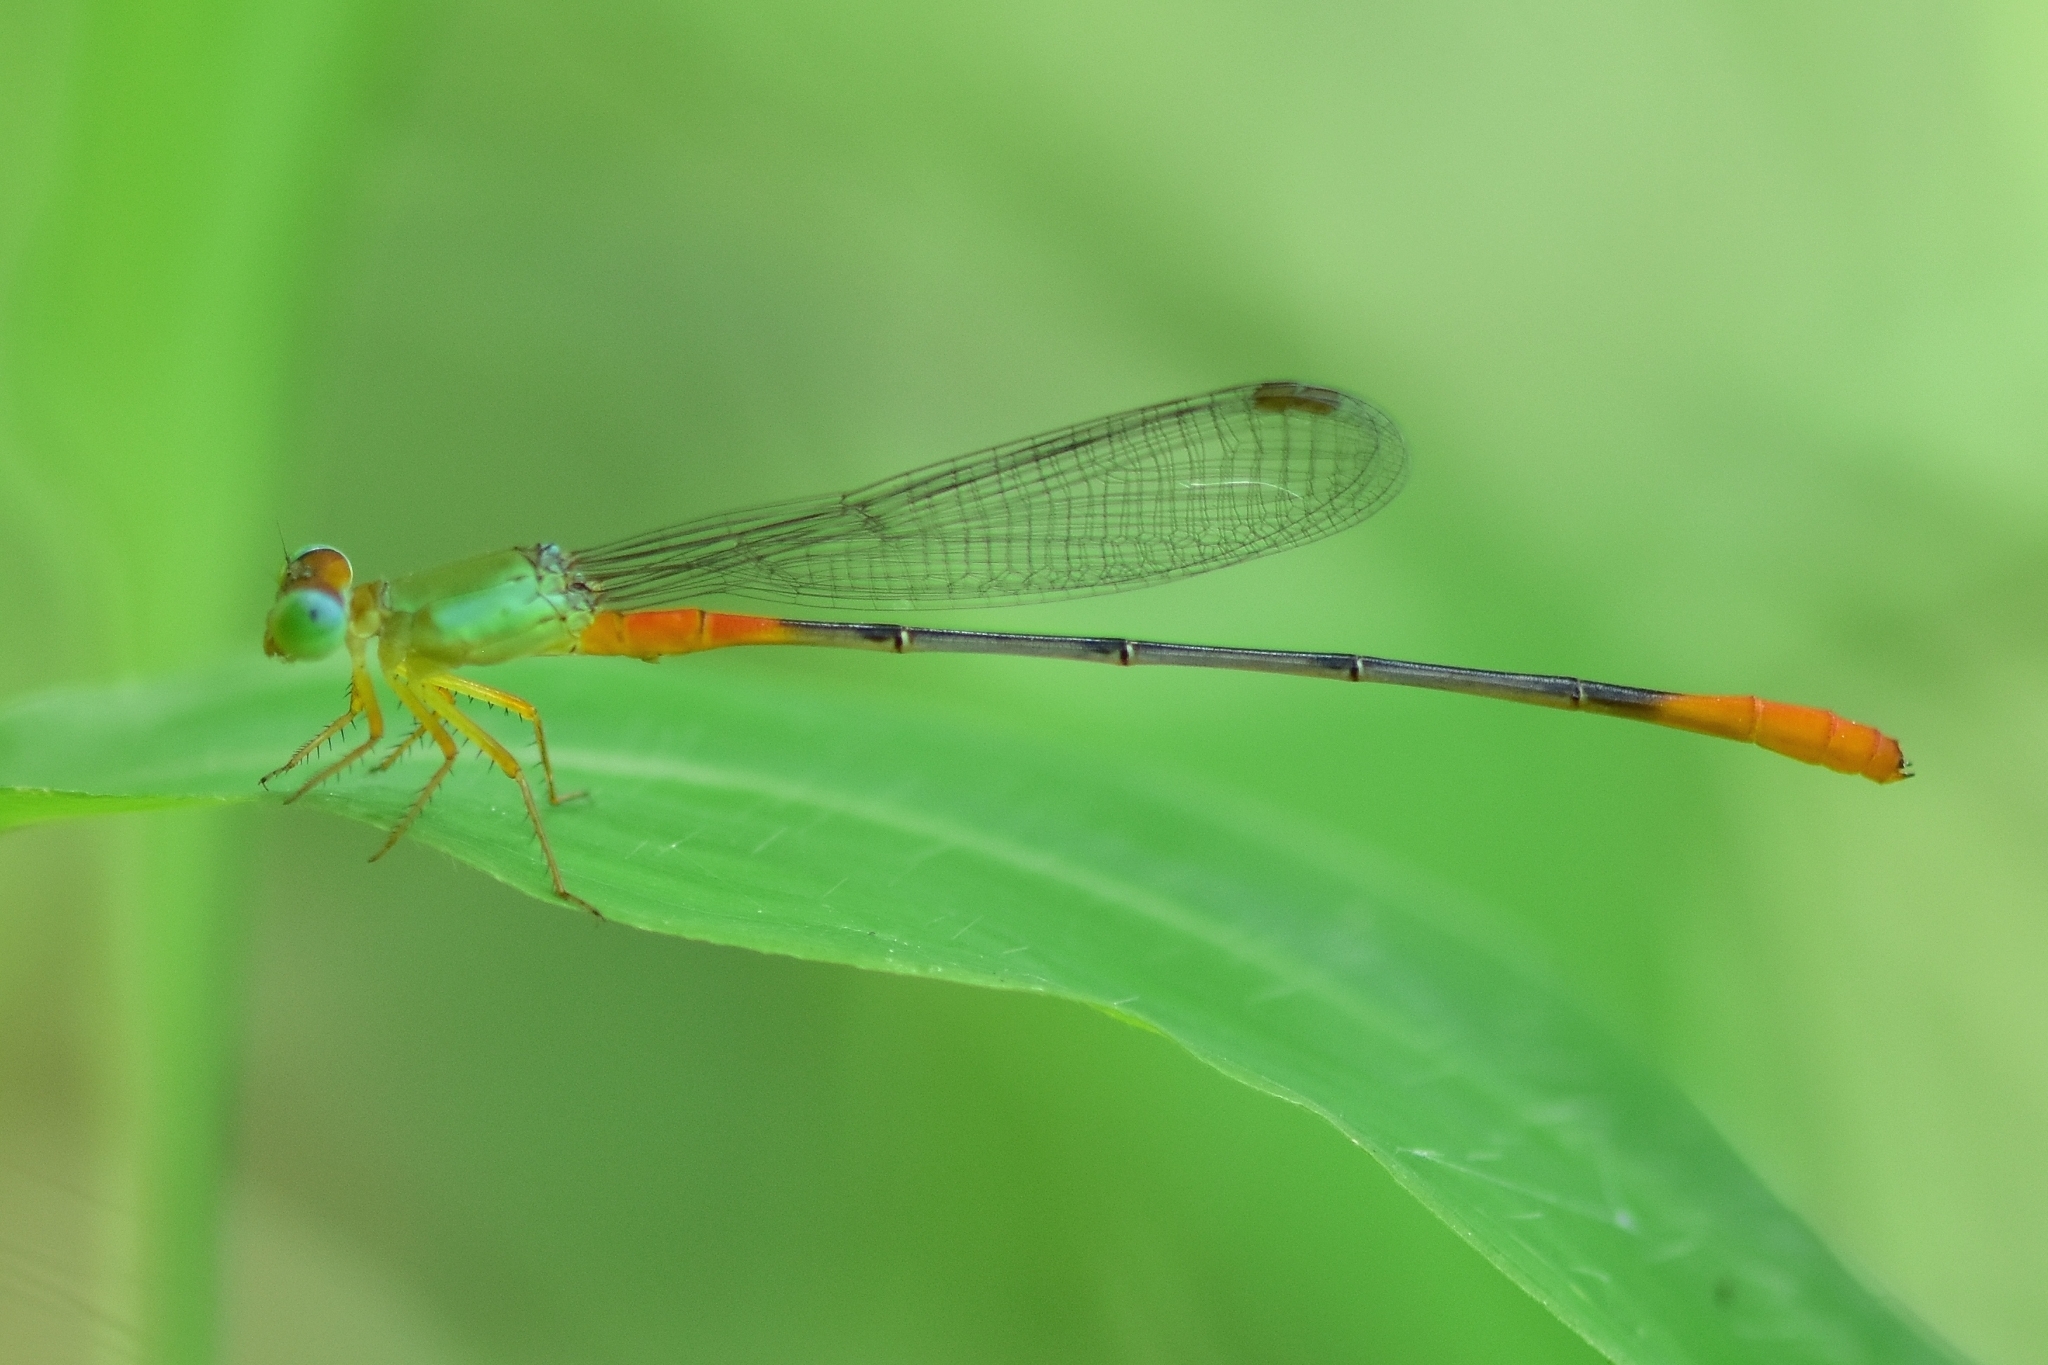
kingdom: Animalia
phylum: Arthropoda
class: Insecta
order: Odonata
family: Coenagrionidae
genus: Ceriagrion
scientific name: Ceriagrion cerinorubellum
